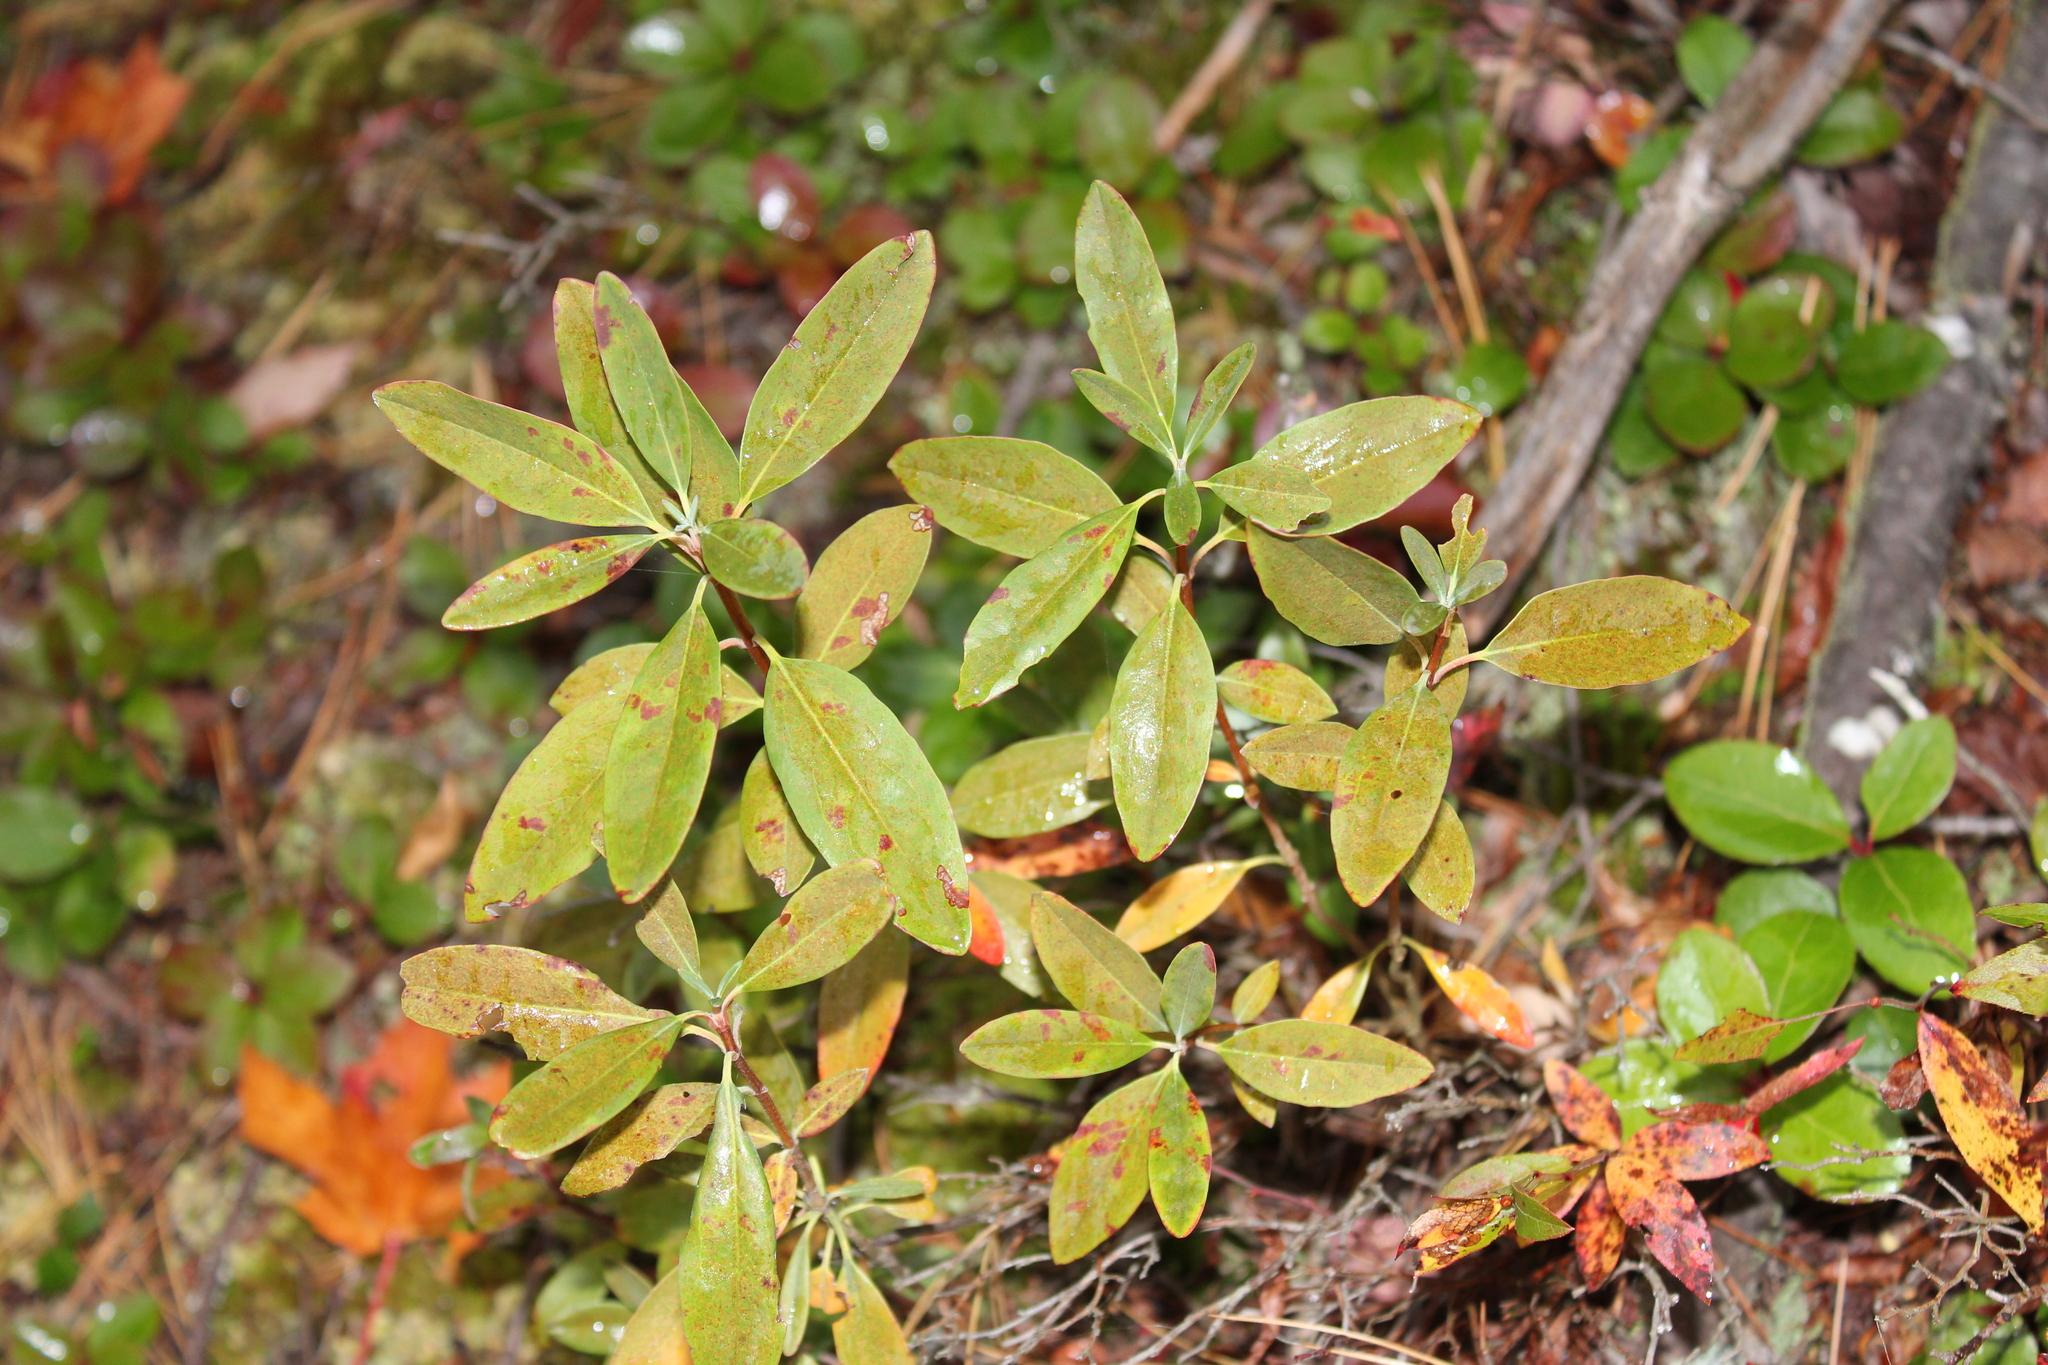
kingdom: Plantae
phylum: Tracheophyta
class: Magnoliopsida
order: Ericales
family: Ericaceae
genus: Kalmia
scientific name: Kalmia angustifolia
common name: Sheep-laurel
